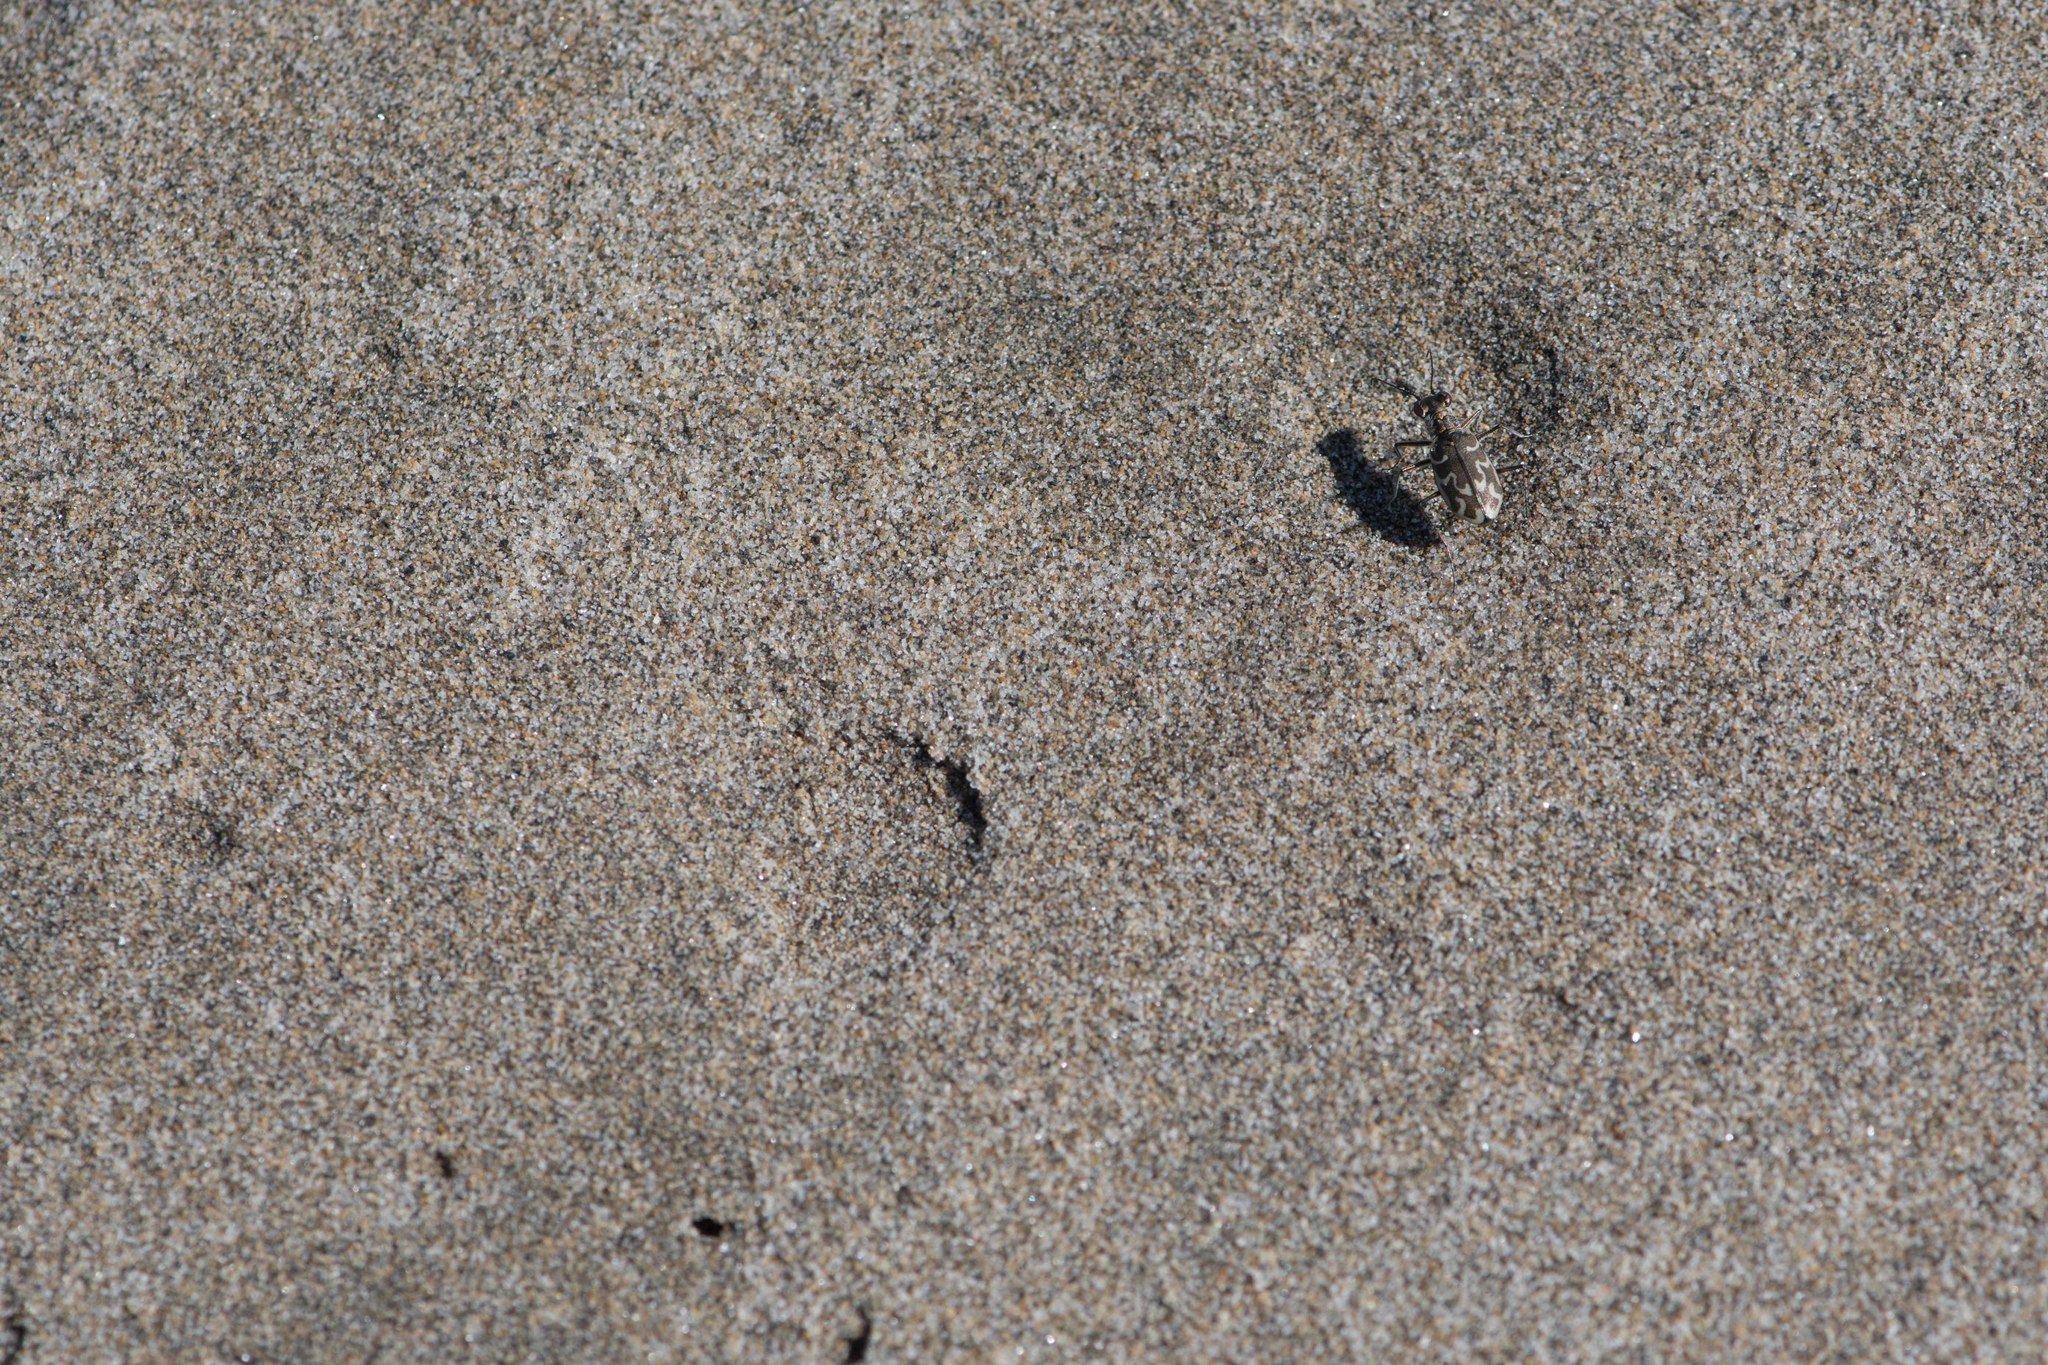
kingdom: Animalia
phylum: Arthropoda
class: Insecta
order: Coleoptera
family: Carabidae
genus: Cylindera
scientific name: Cylindera trisignata
